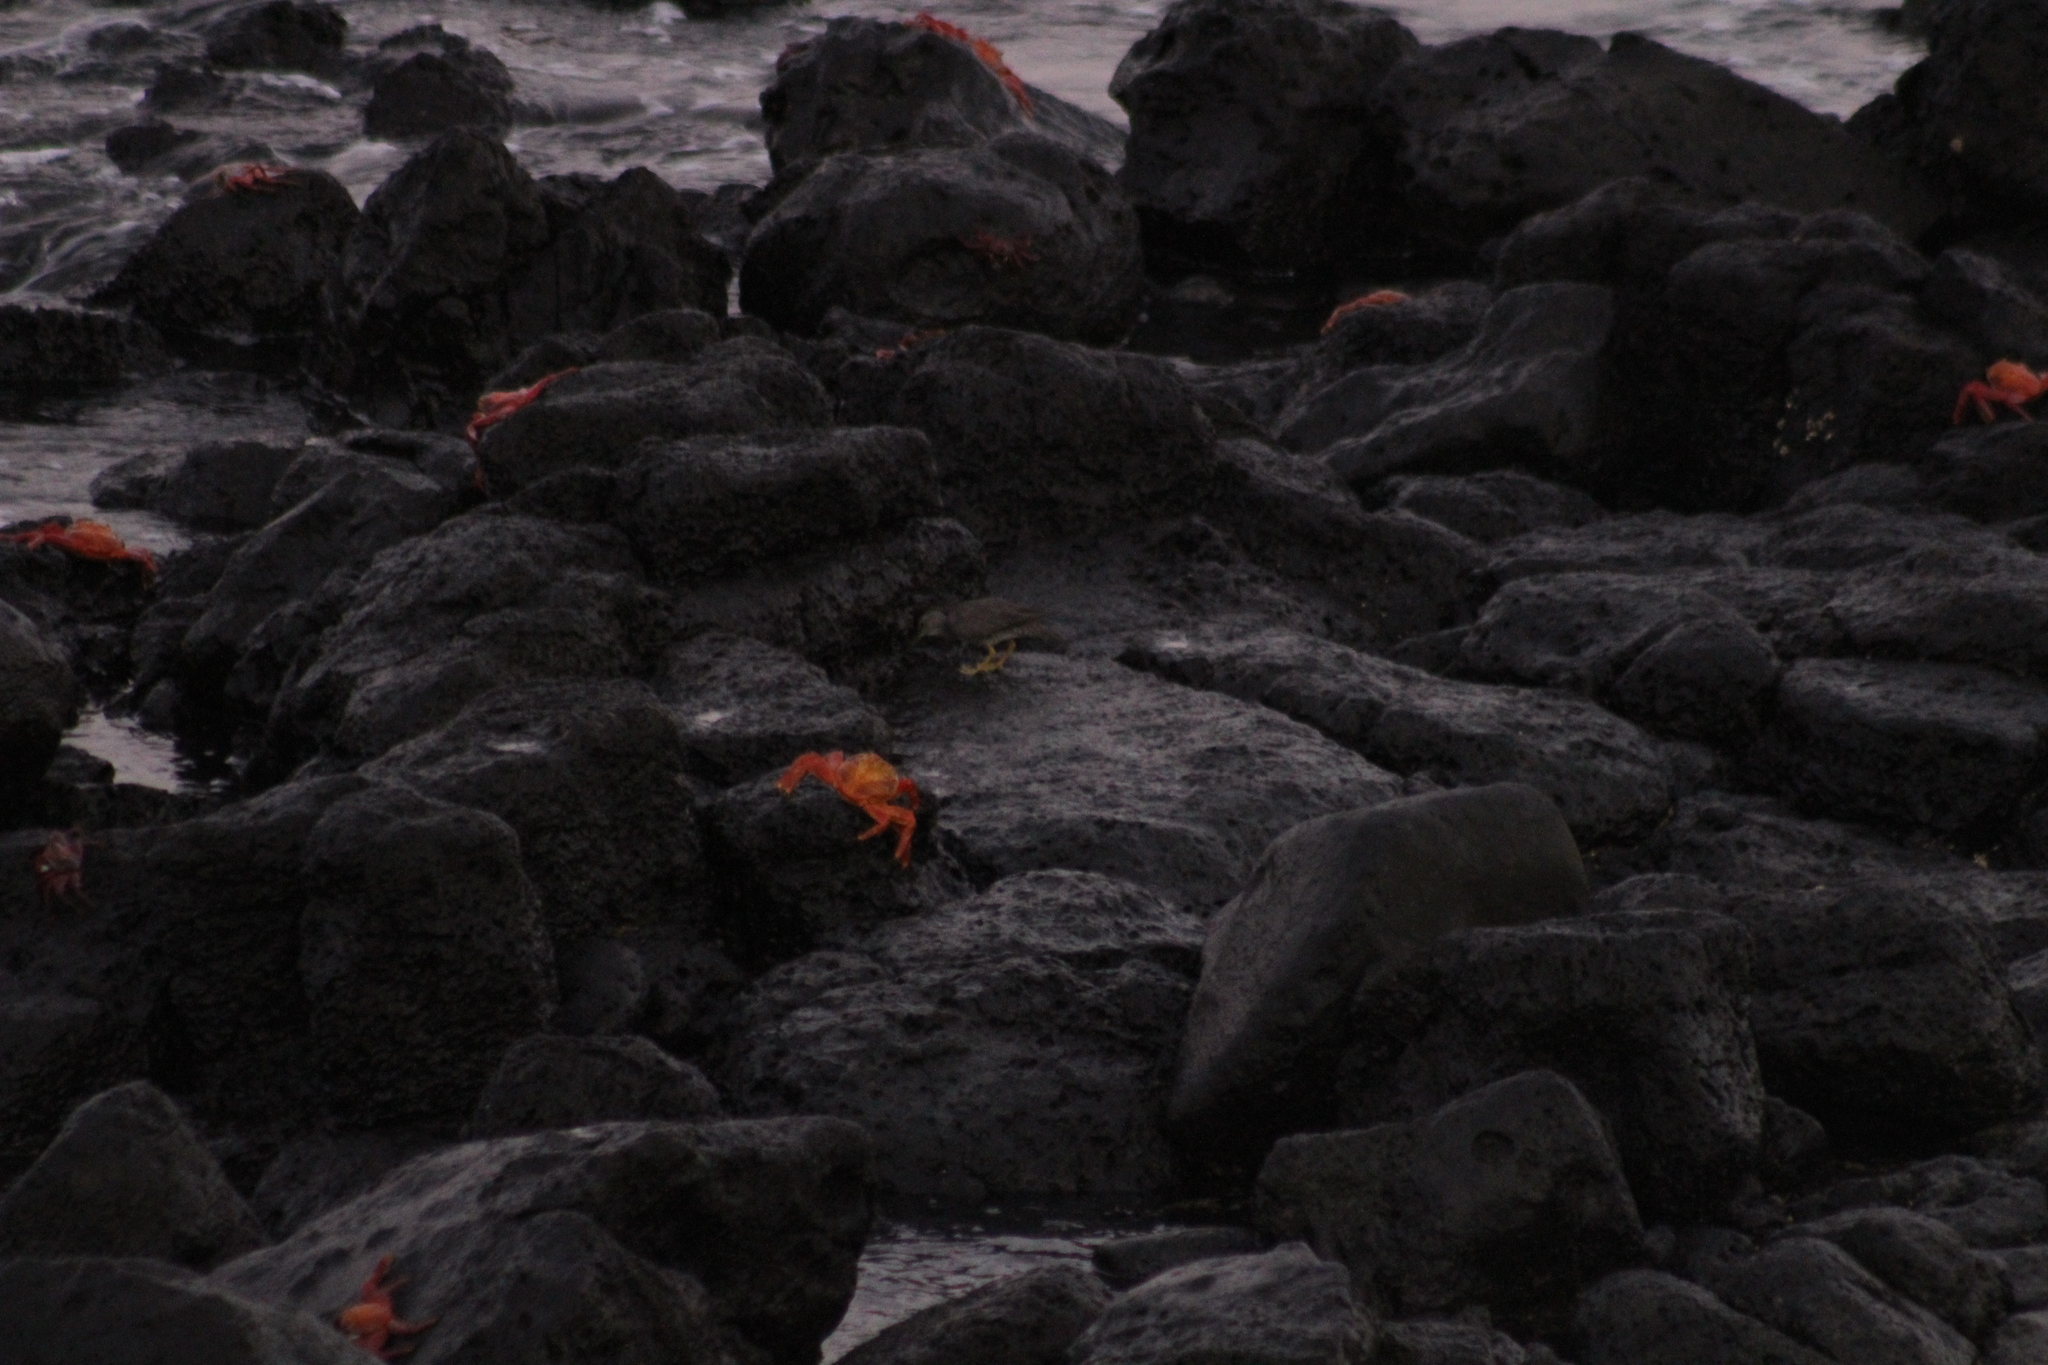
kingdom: Animalia
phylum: Chordata
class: Aves
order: Charadriiformes
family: Scolopacidae
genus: Tringa
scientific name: Tringa incana
